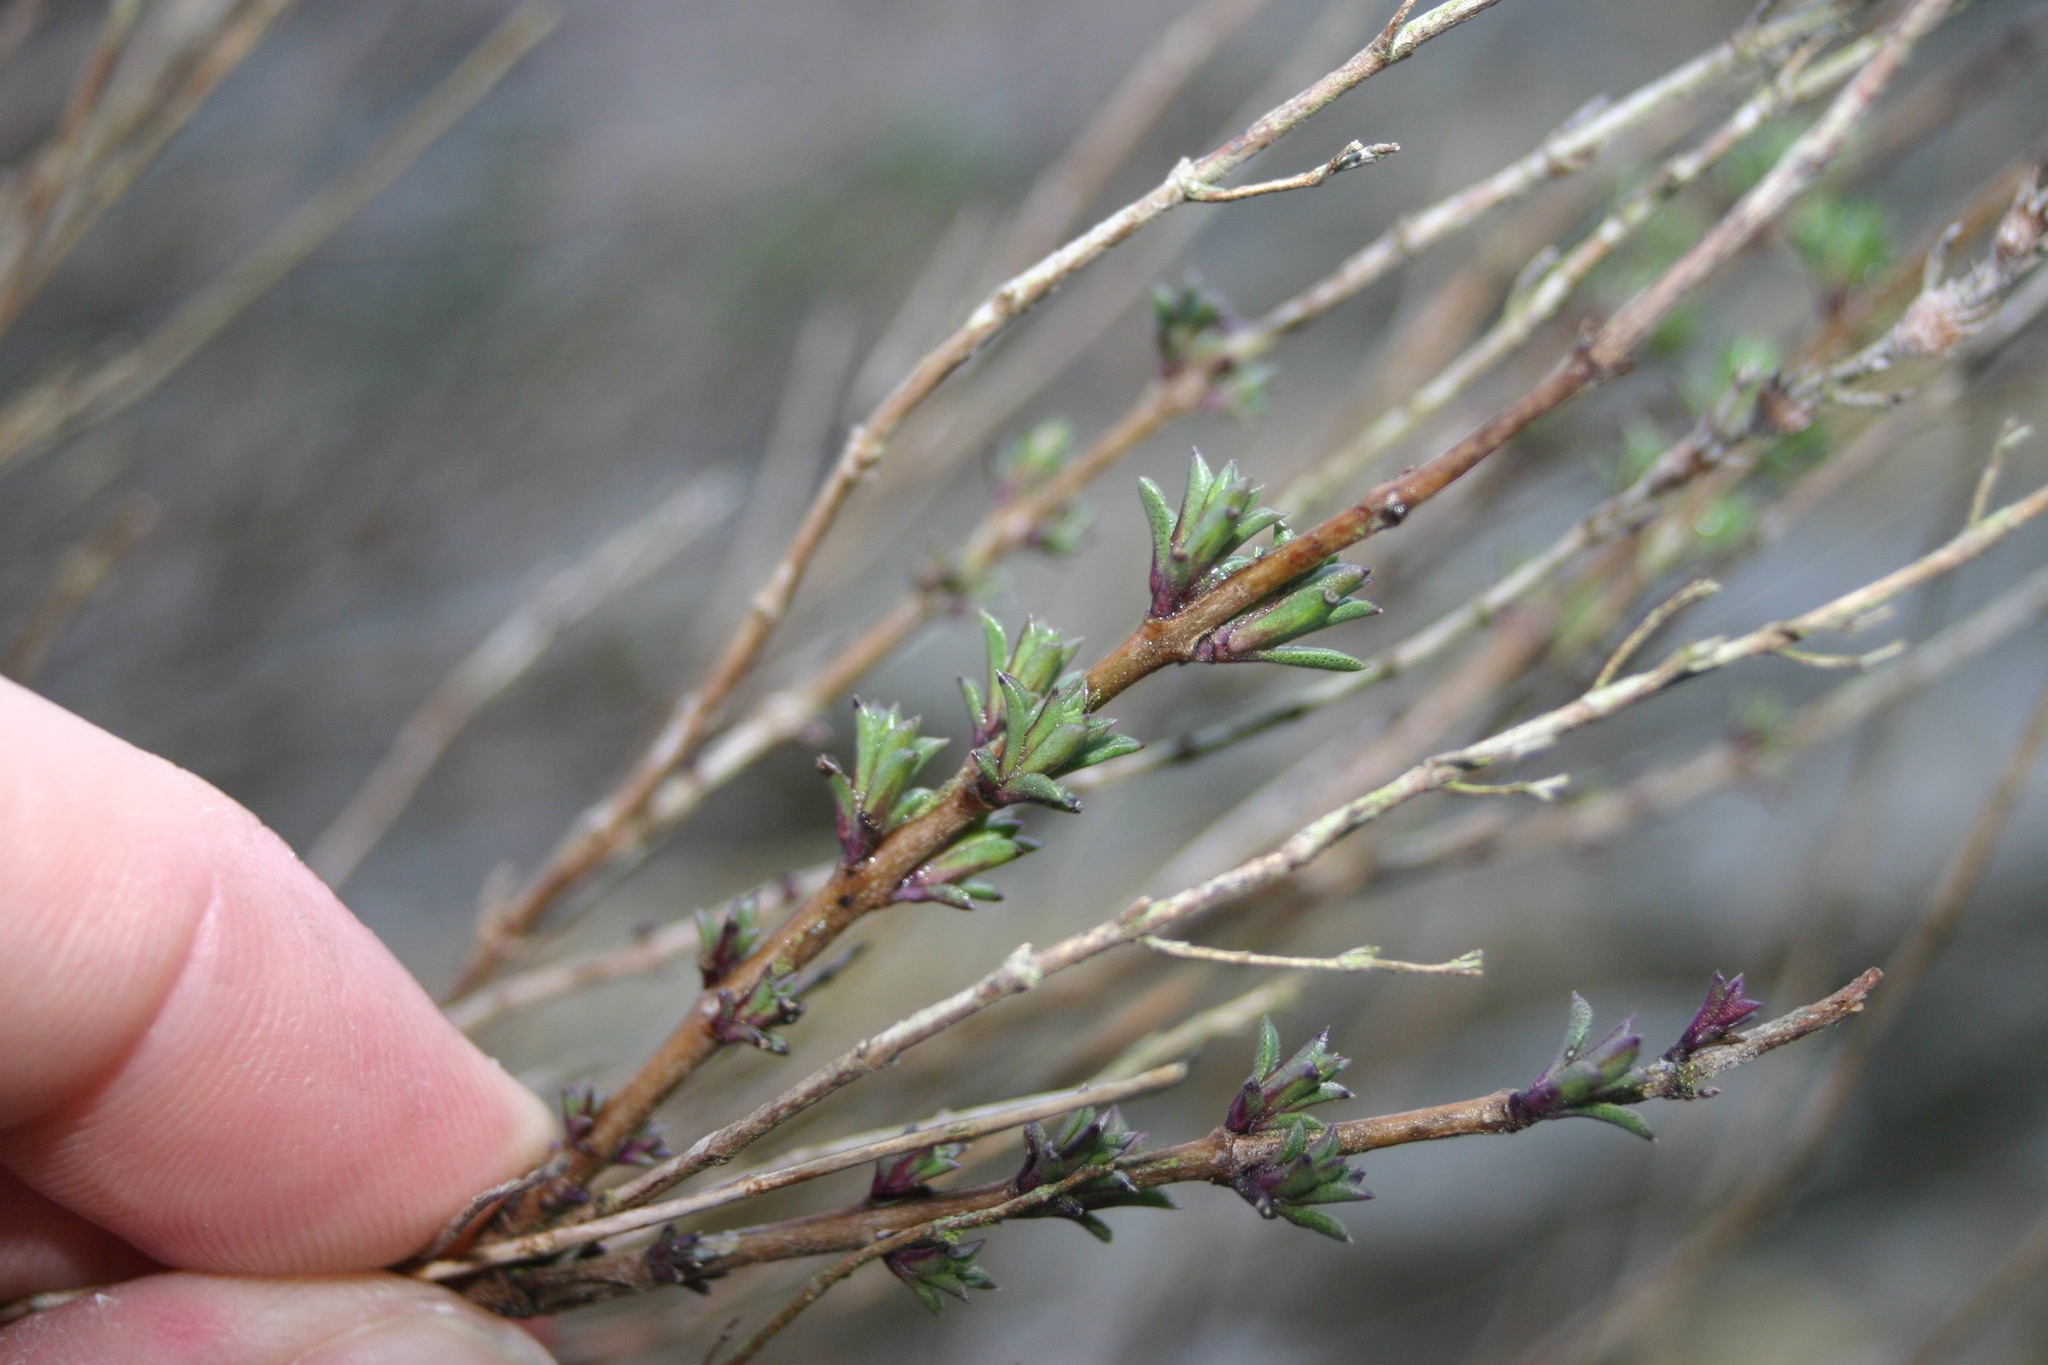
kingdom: Plantae
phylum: Tracheophyta
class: Magnoliopsida
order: Lamiales
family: Lamiaceae
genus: Satureja
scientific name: Satureja montana
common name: Winter savory
